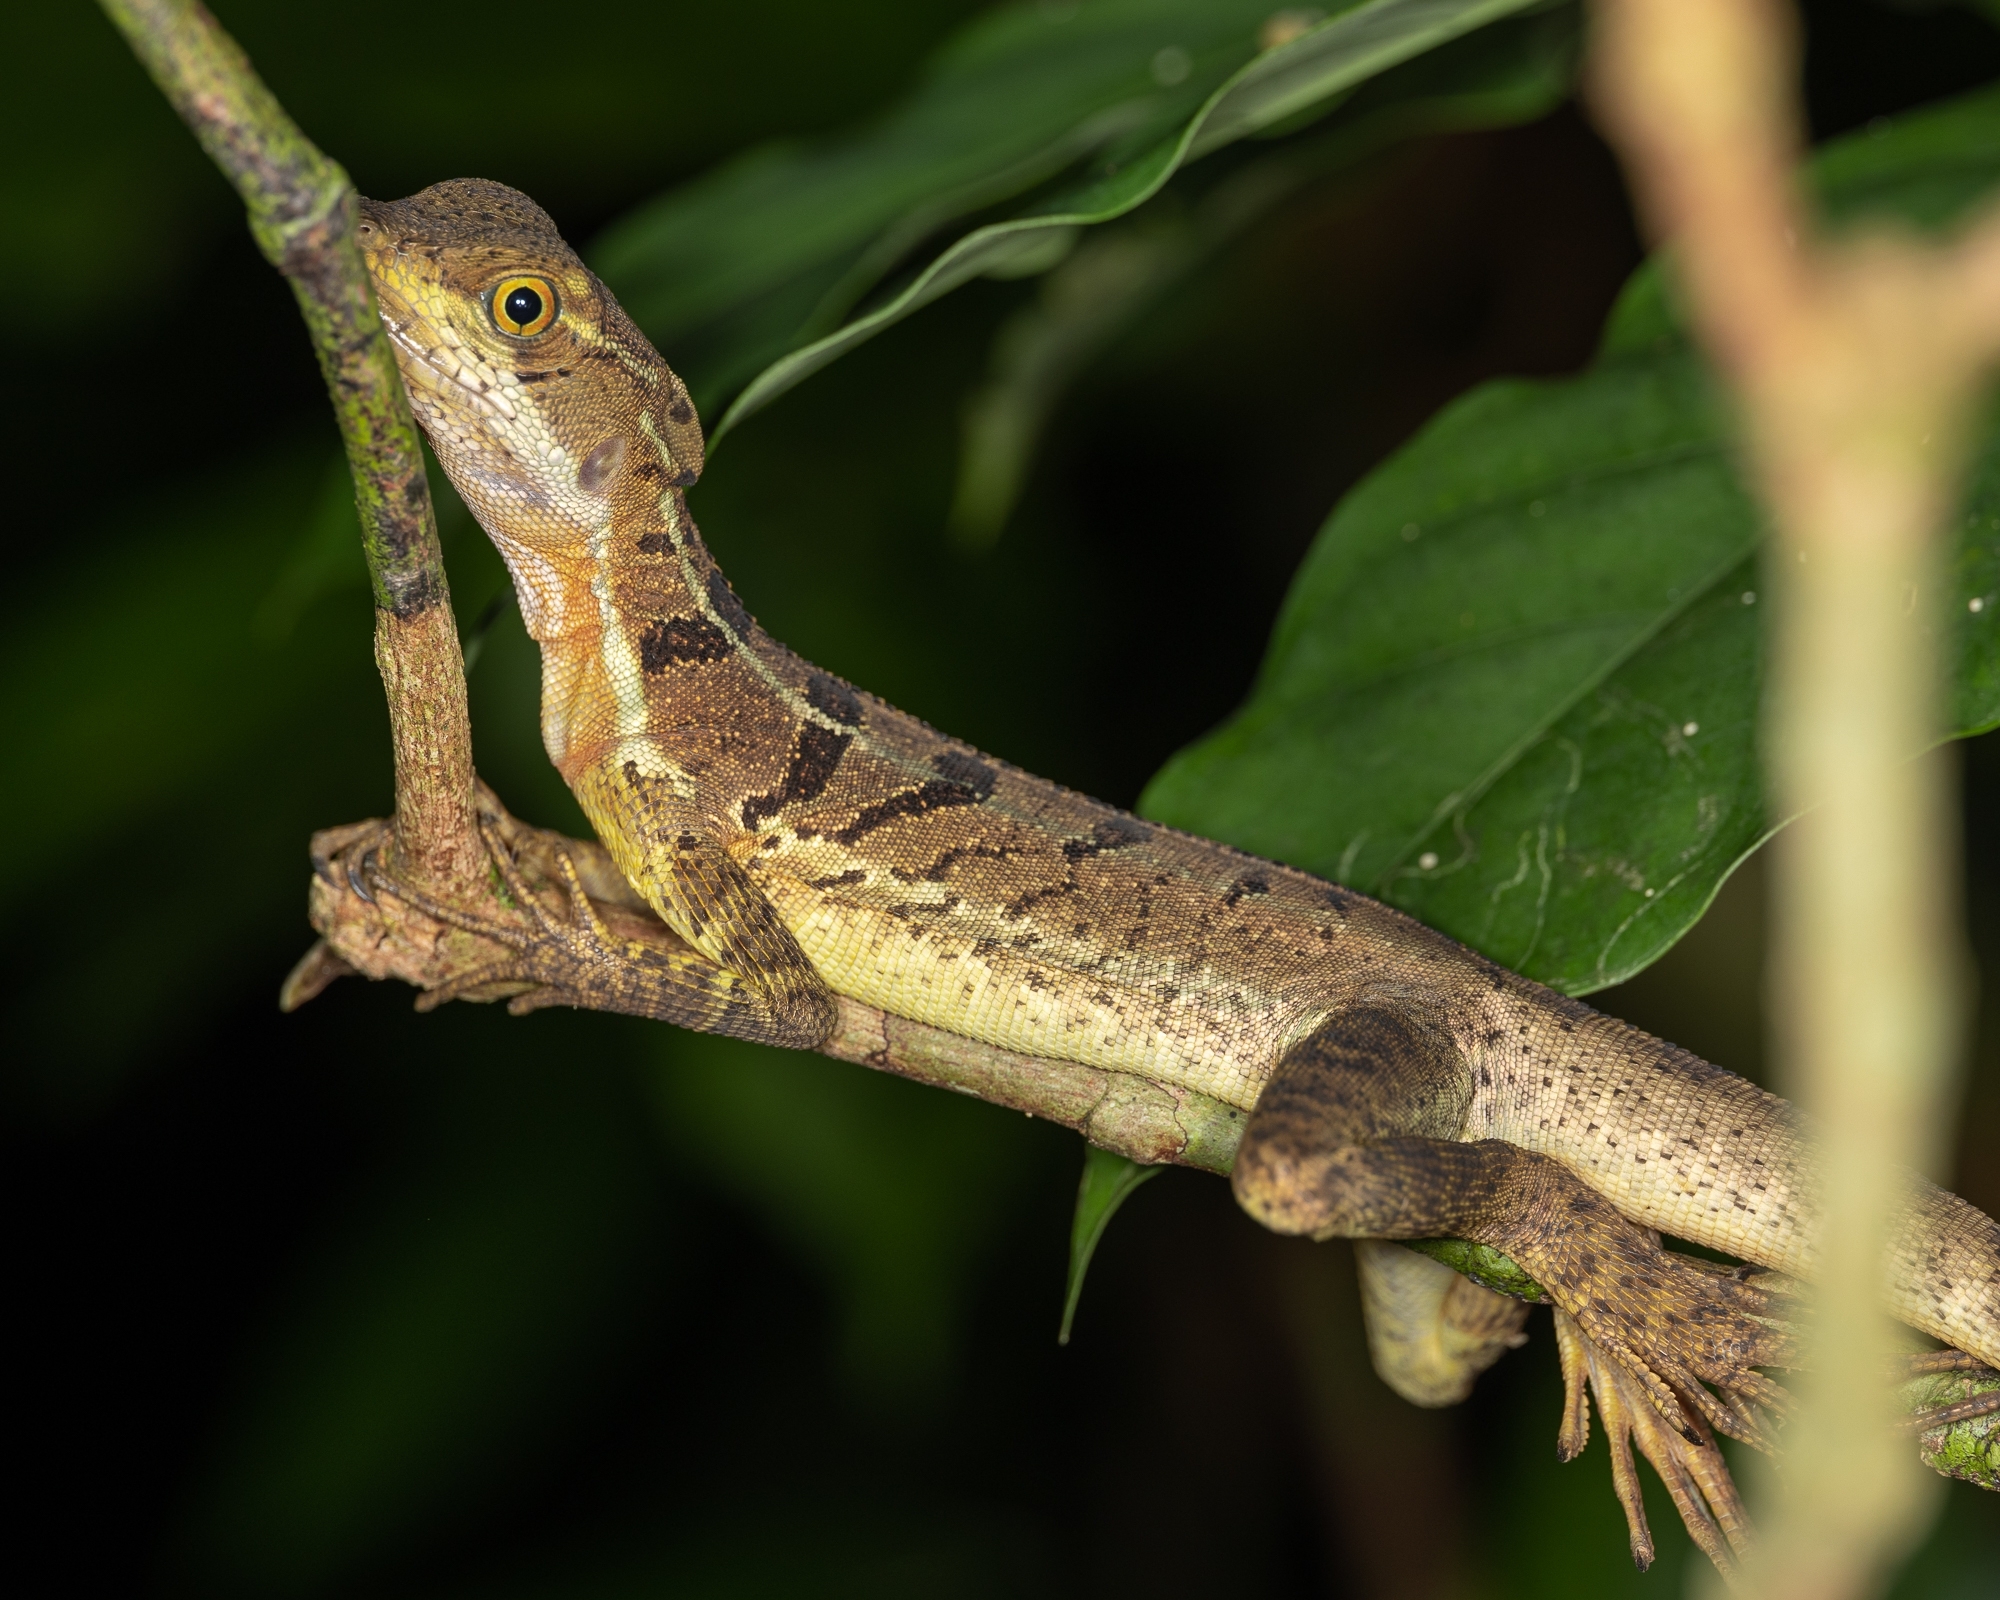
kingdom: Animalia
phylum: Chordata
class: Squamata
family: Corytophanidae
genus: Basiliscus
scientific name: Basiliscus basiliscus
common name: Common basilisk
